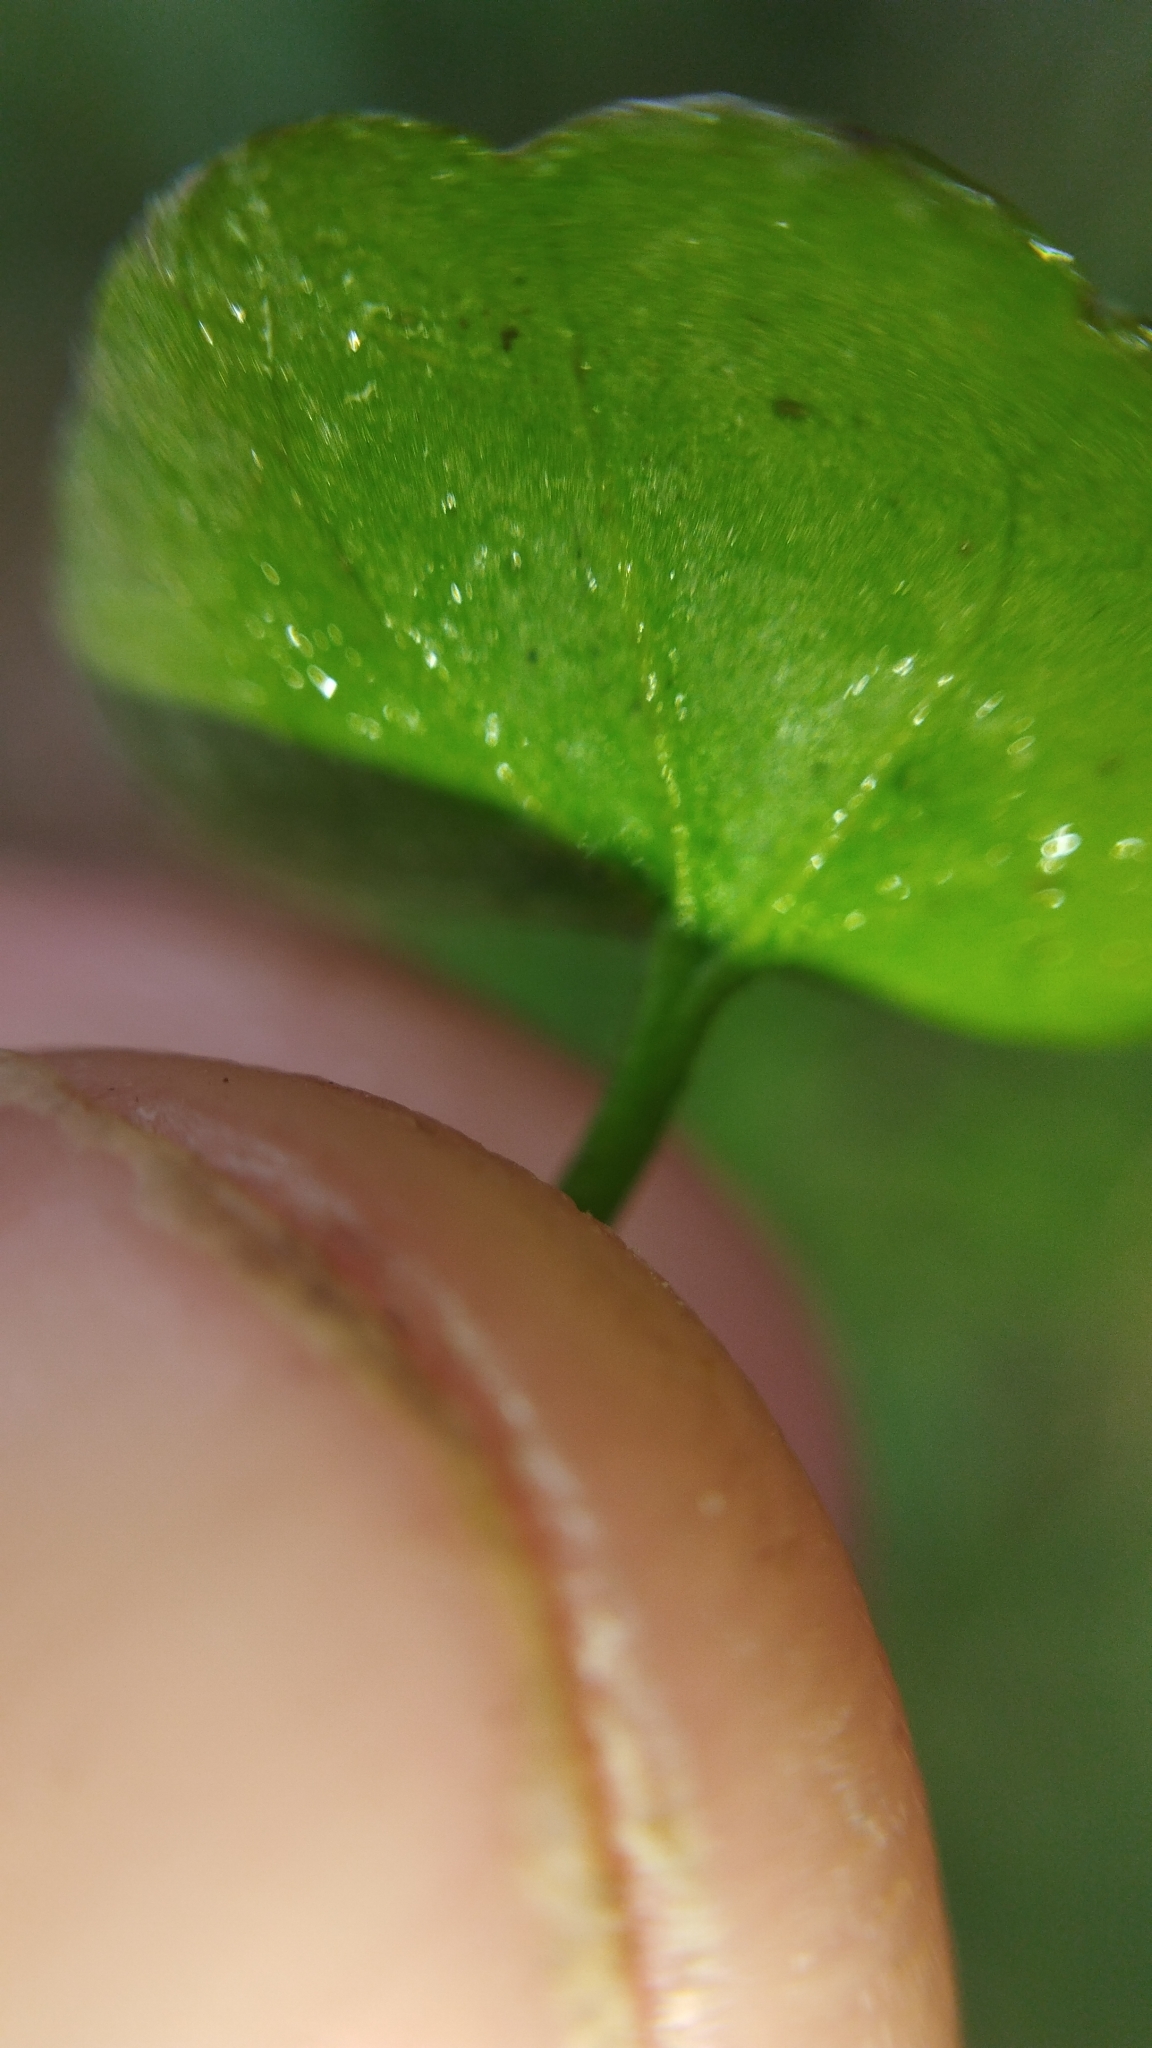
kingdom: Plantae
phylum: Tracheophyta
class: Magnoliopsida
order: Solanales
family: Convolvulaceae
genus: Dichondra
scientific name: Dichondra micrantha
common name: Kidneyweed
